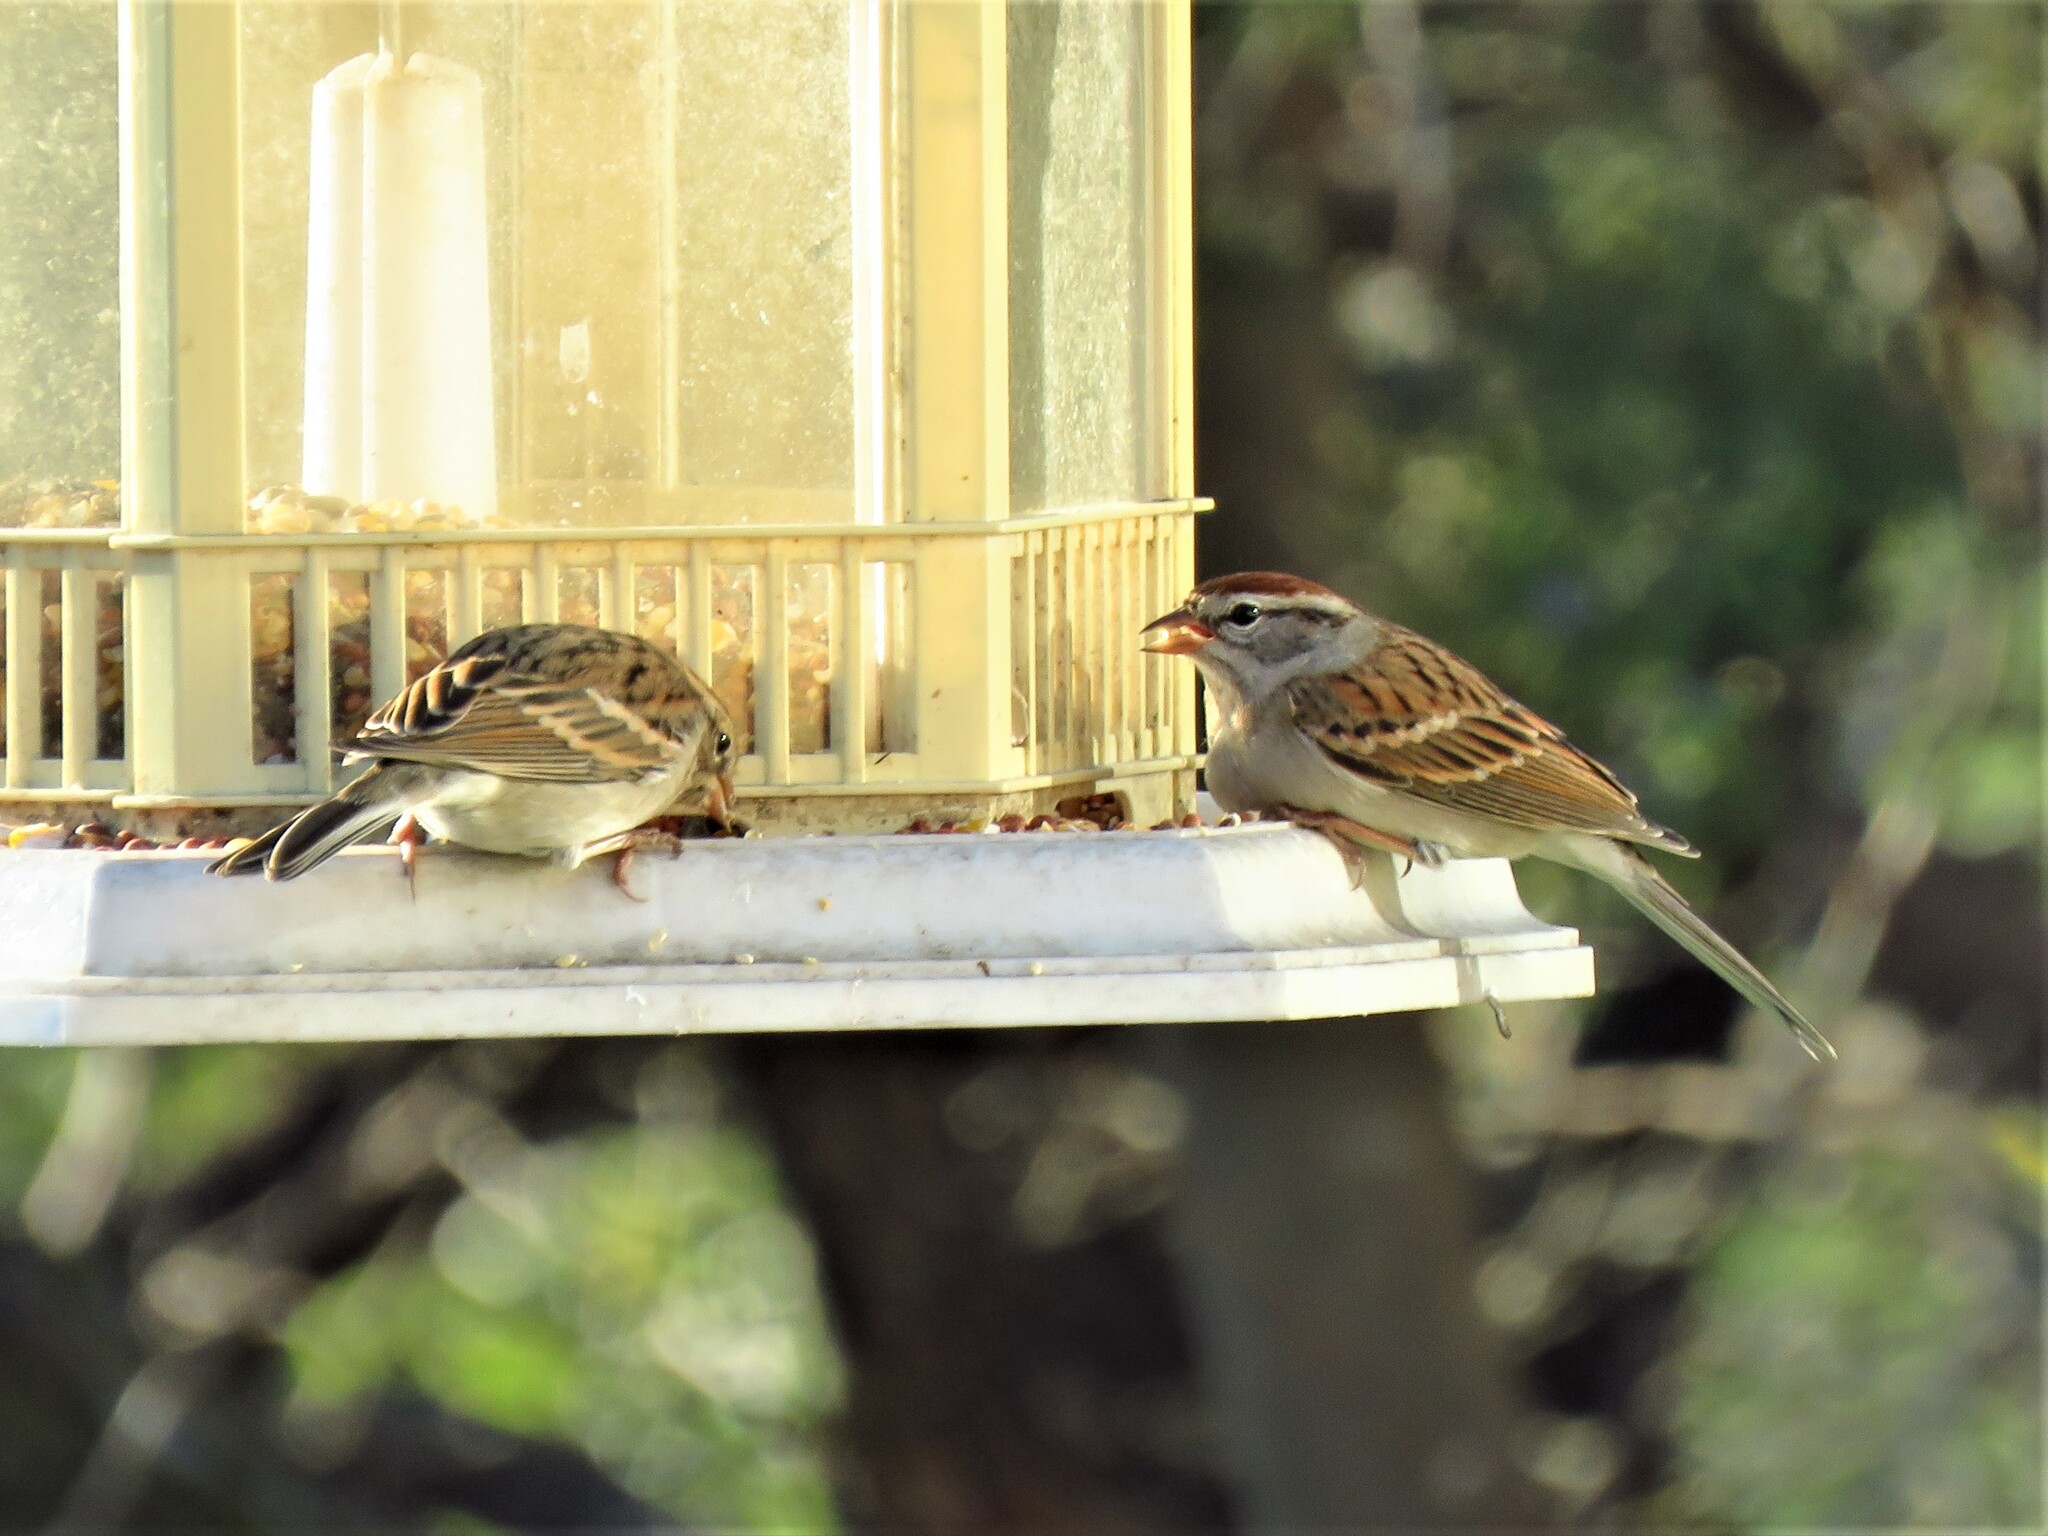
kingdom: Animalia
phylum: Chordata
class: Aves
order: Passeriformes
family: Passerellidae
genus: Spizella
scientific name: Spizella passerina
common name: Chipping sparrow
